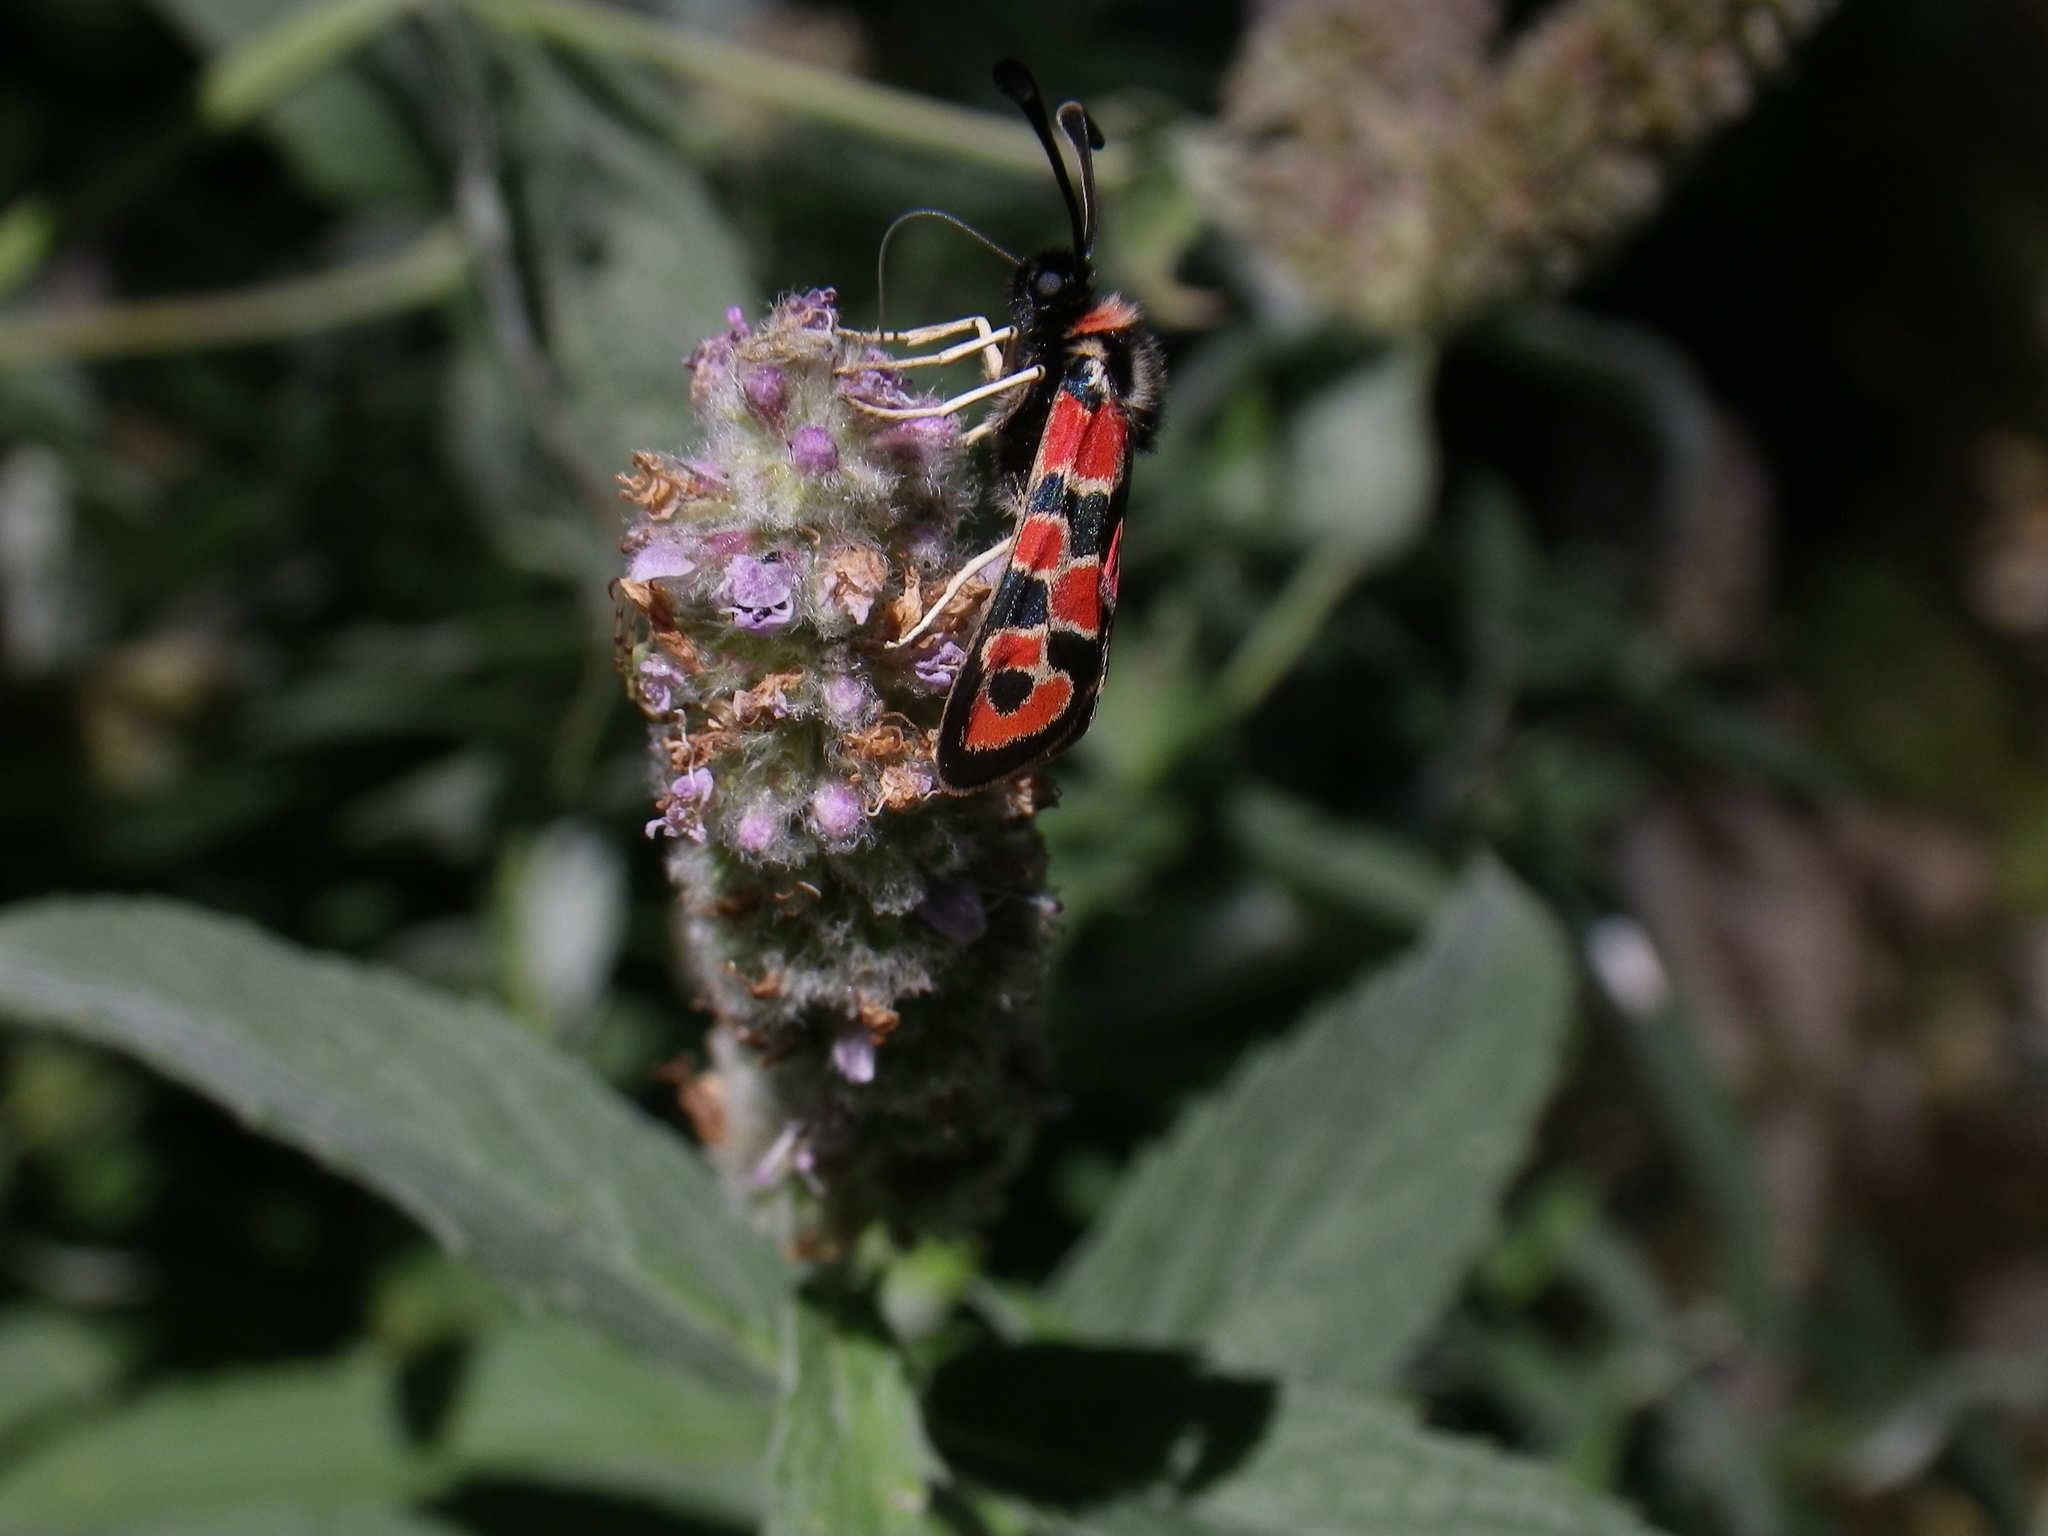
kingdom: Animalia
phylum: Arthropoda
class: Insecta
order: Lepidoptera
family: Zygaenidae
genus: Zygaena
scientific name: Zygaena fausta
